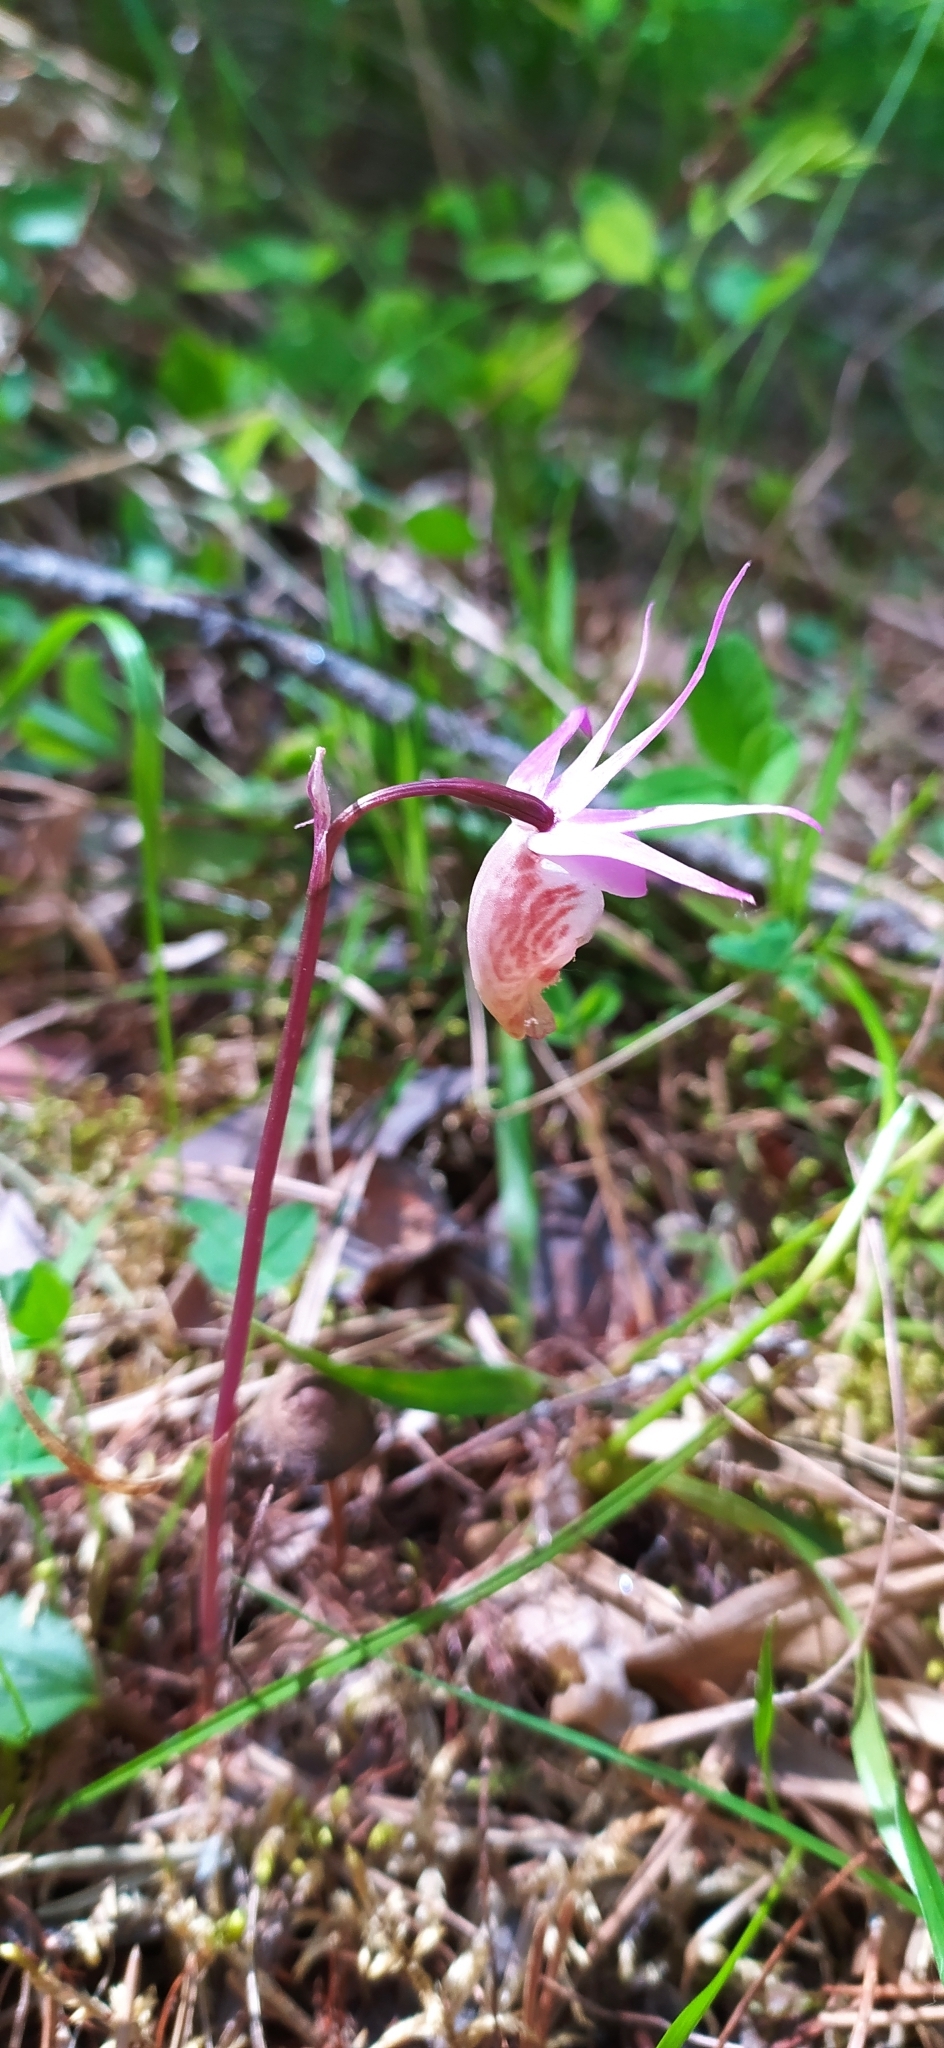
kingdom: Plantae
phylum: Tracheophyta
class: Liliopsida
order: Asparagales
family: Orchidaceae
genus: Calypso
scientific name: Calypso bulbosa
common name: Calypso
